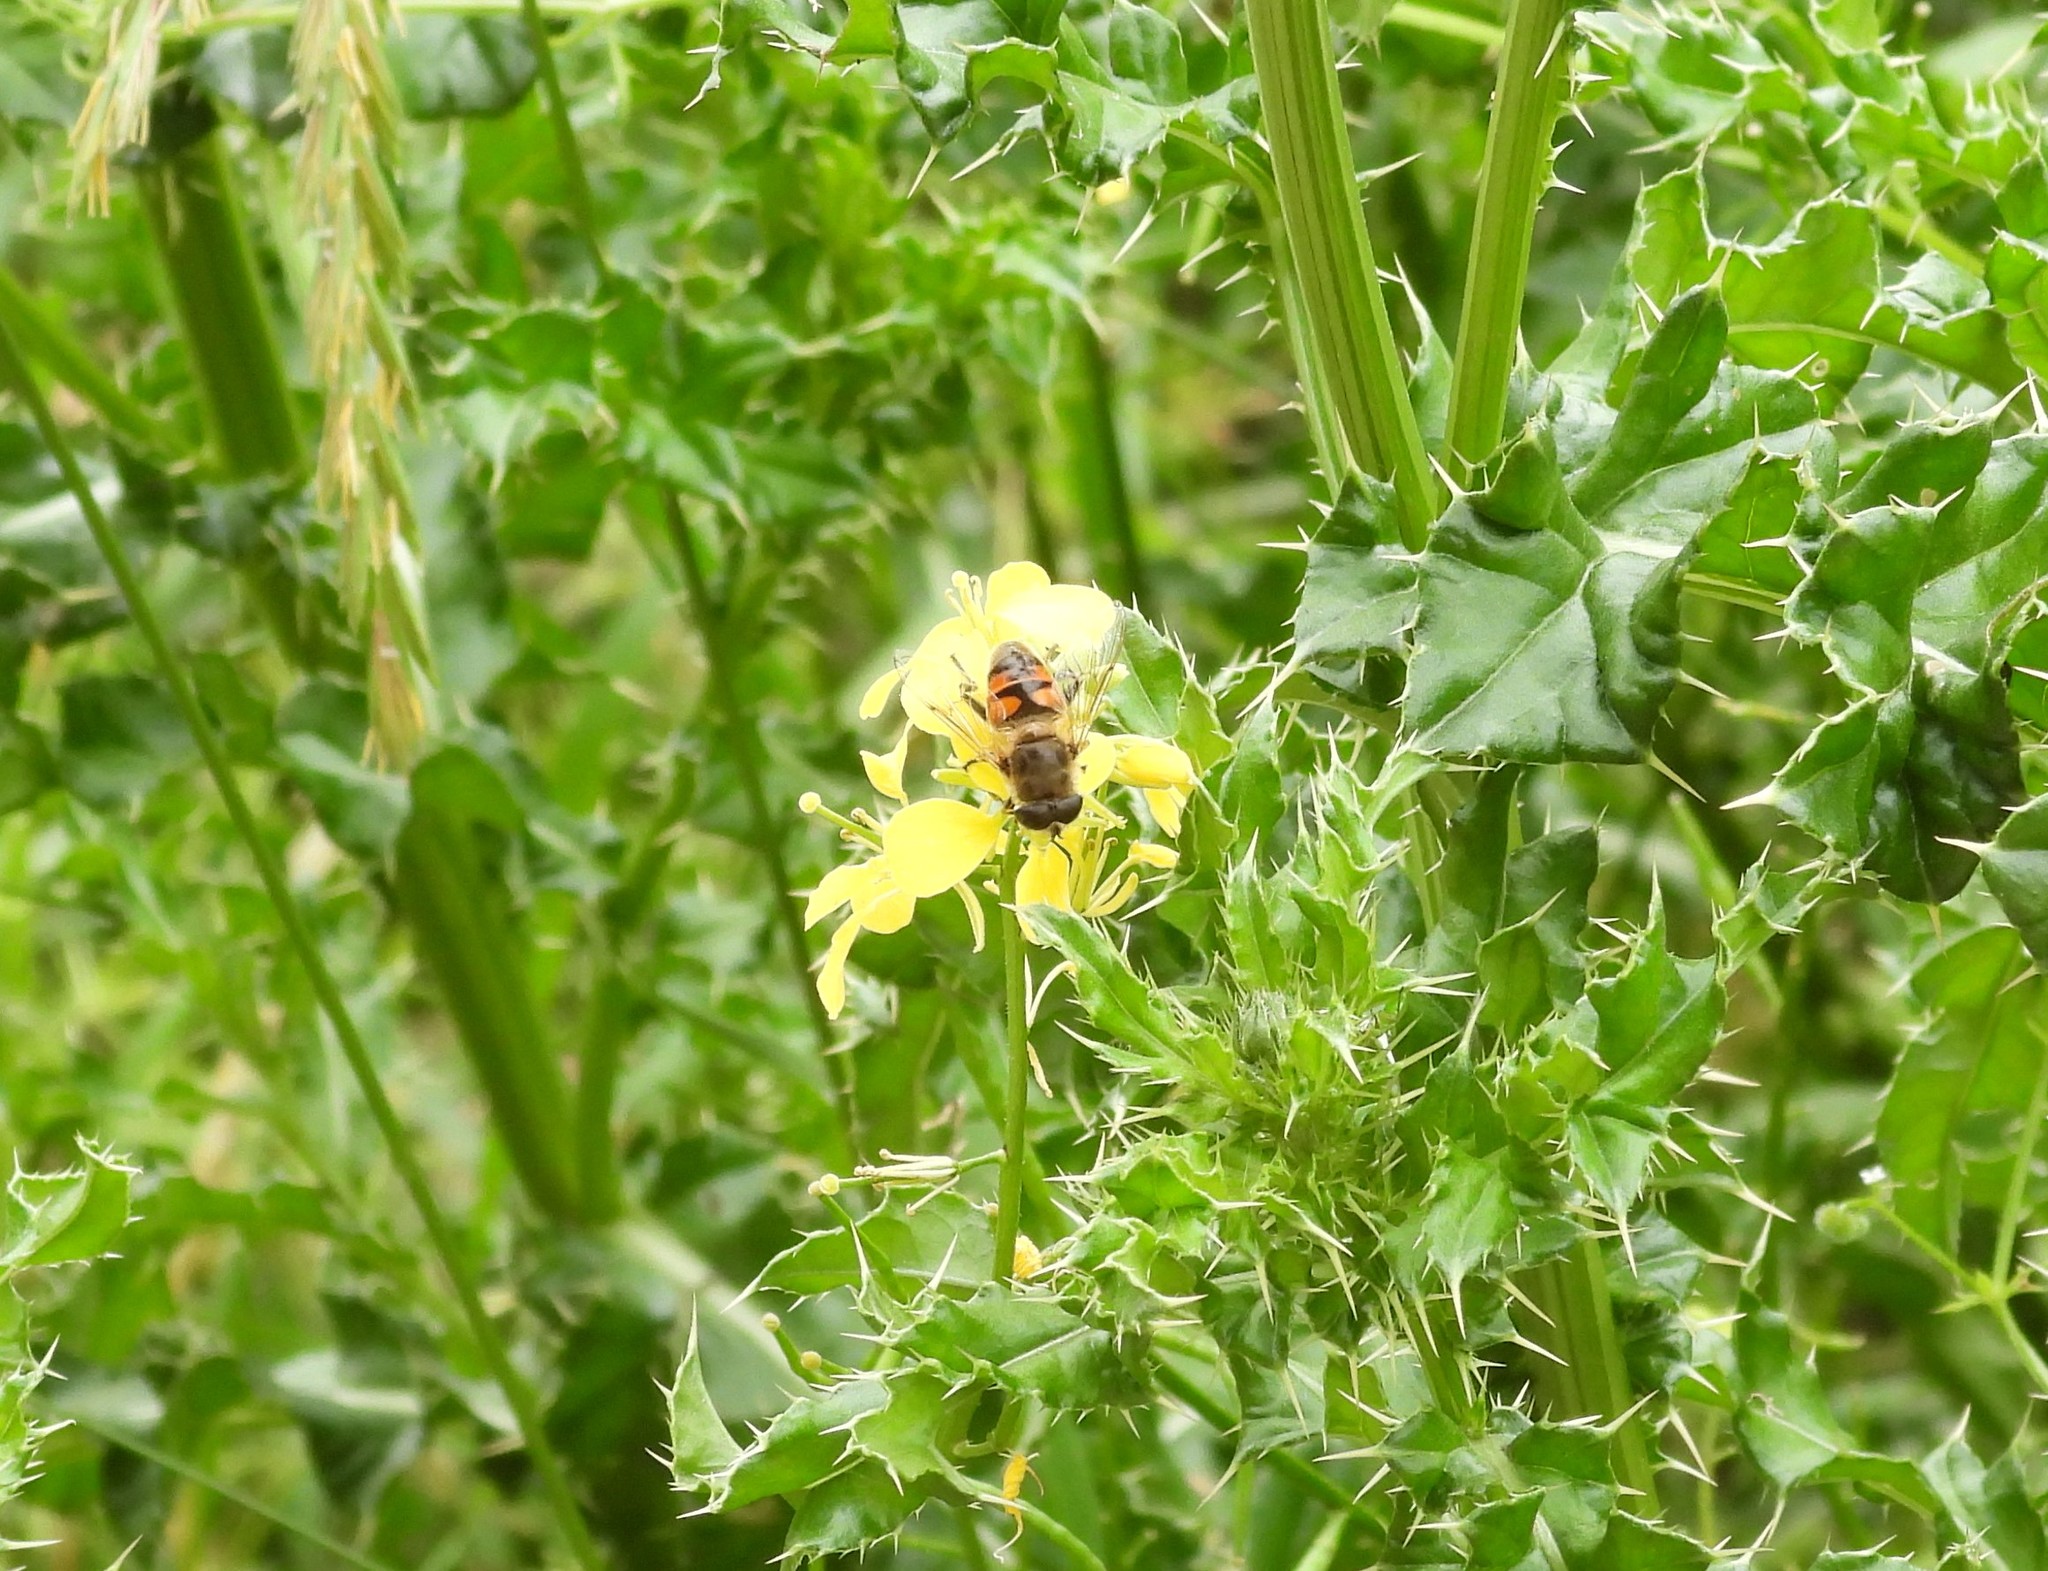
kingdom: Animalia
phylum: Arthropoda
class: Insecta
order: Diptera
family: Syrphidae
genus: Eristalis
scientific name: Eristalis tenax
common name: Drone fly
